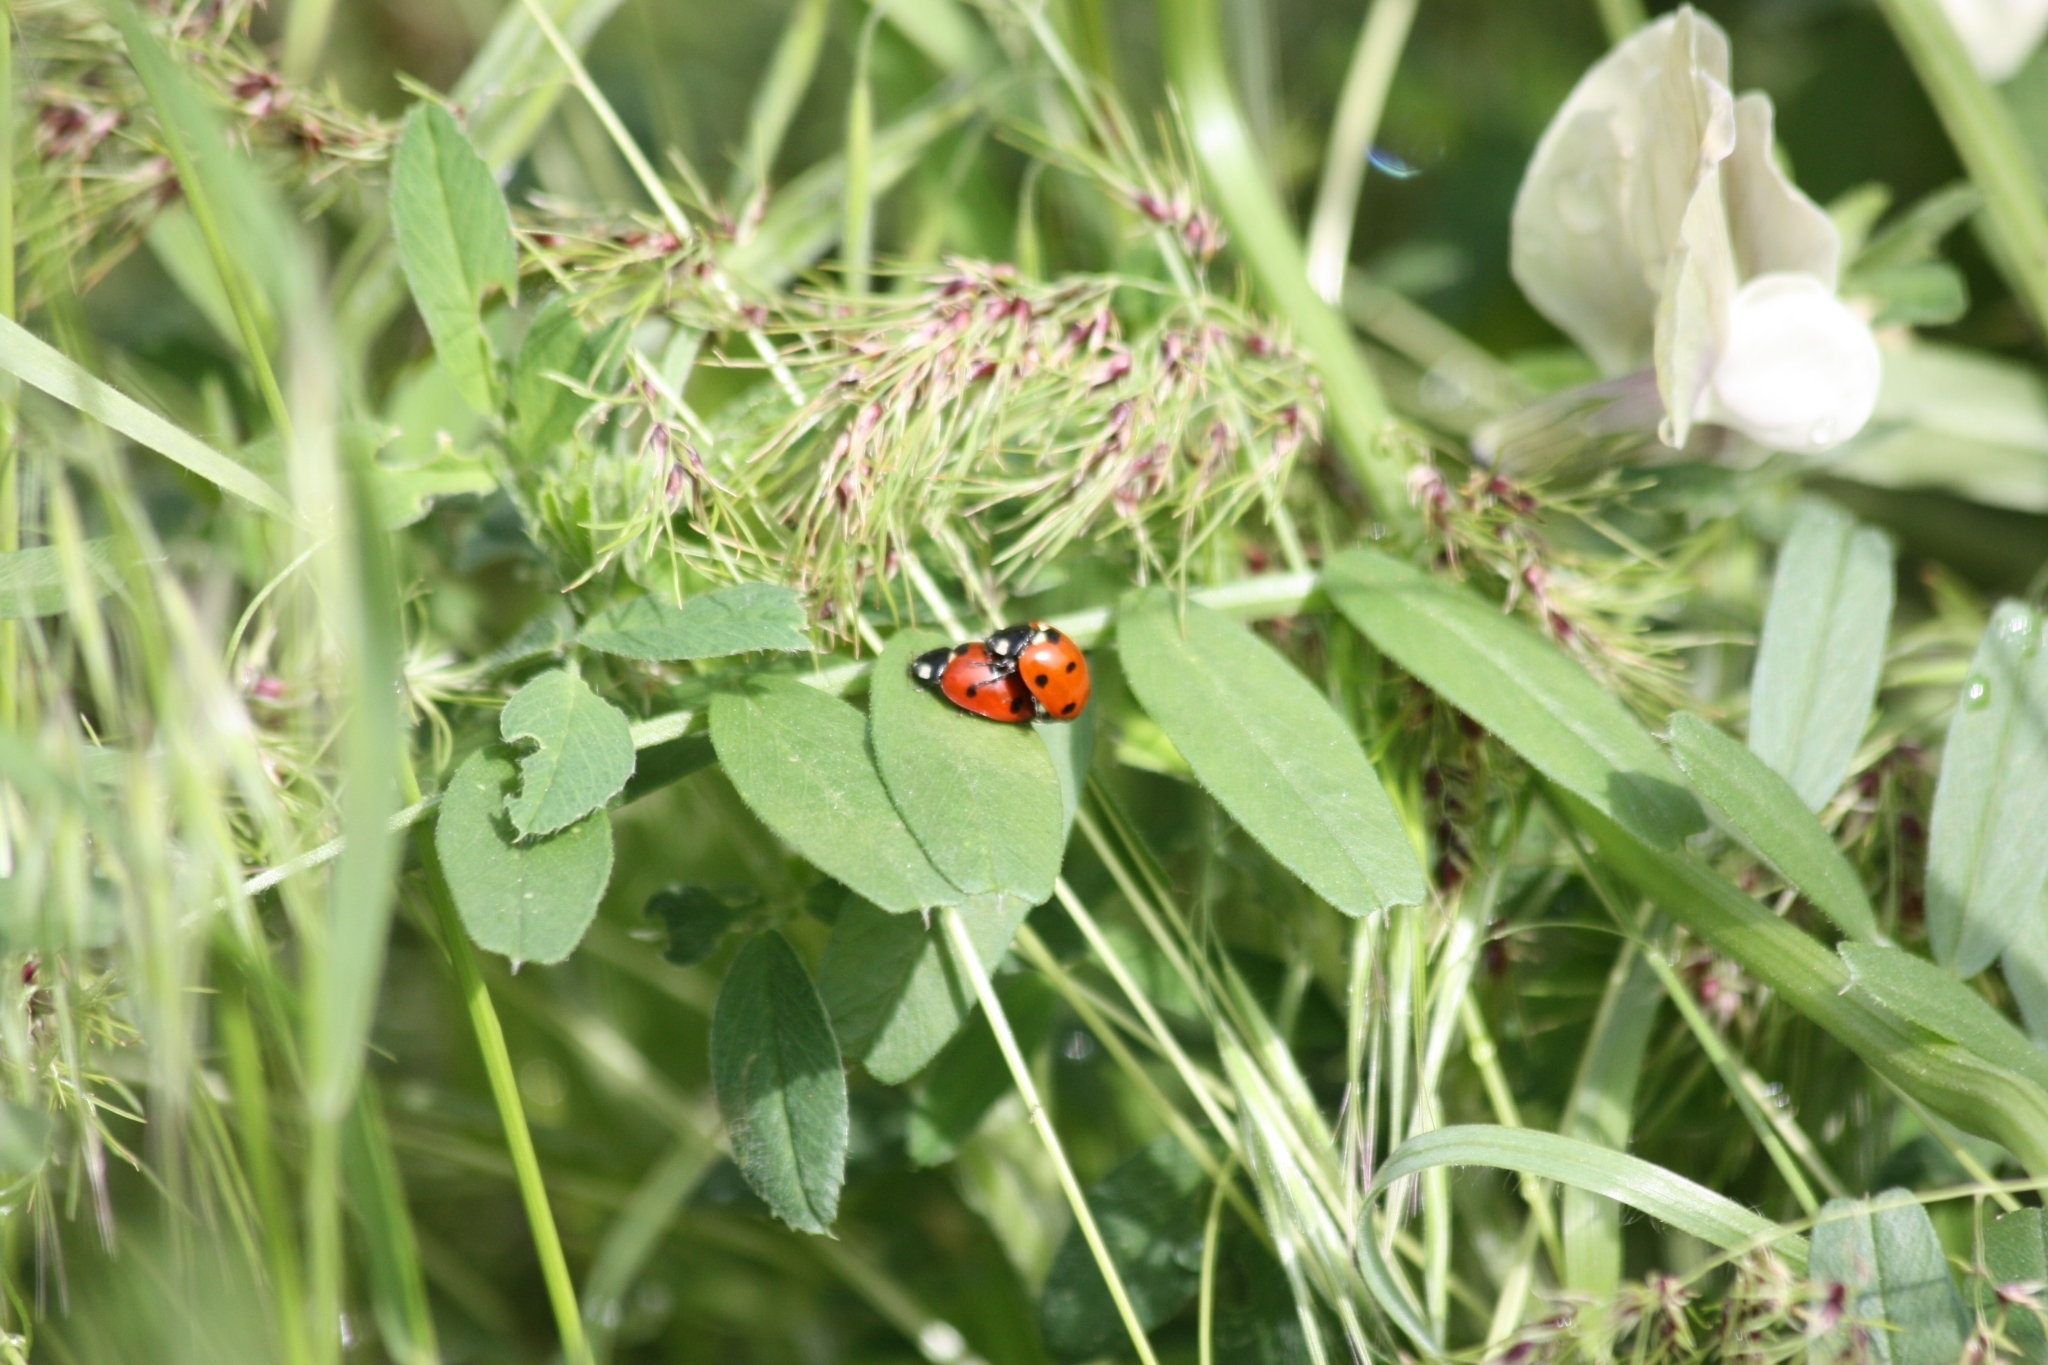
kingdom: Animalia
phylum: Arthropoda
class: Insecta
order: Coleoptera
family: Coccinellidae
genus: Coccinella
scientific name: Coccinella septempunctata
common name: Sevenspotted lady beetle
